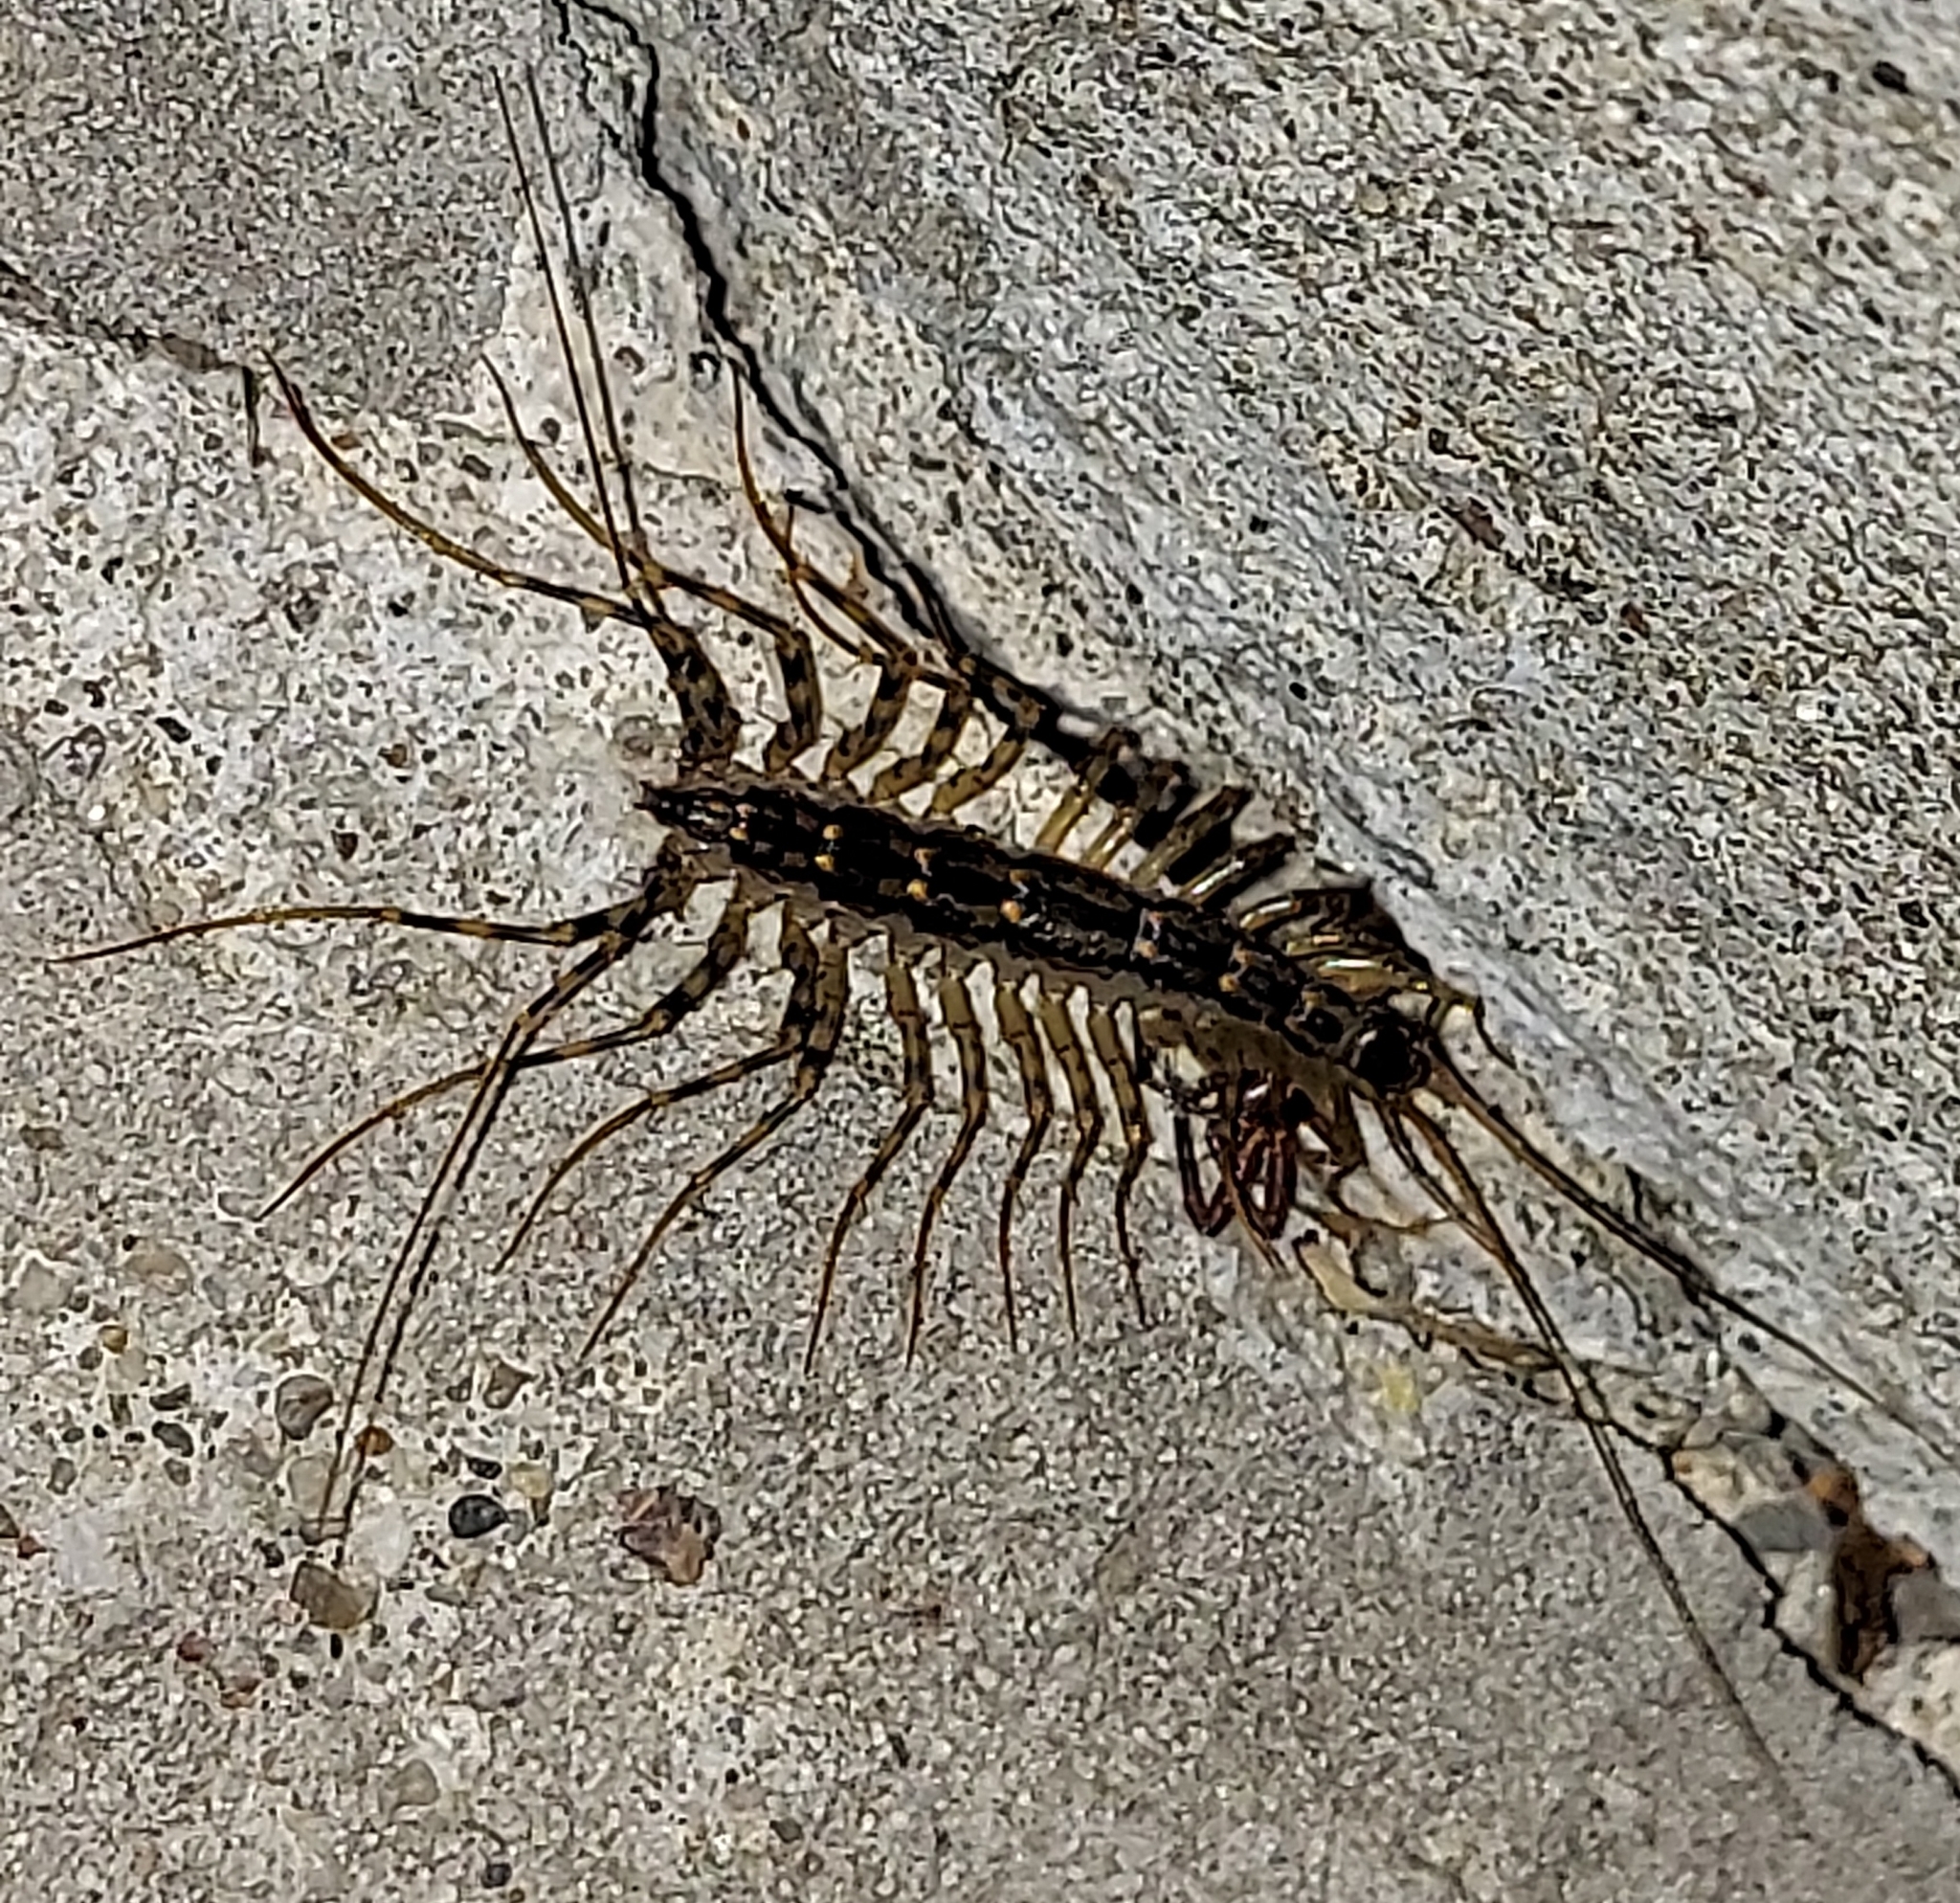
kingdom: Animalia
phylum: Arthropoda
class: Chilopoda
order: Scutigeromorpha
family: Scutigeridae
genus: Thereuonema
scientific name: Thereuonema tuberculata
